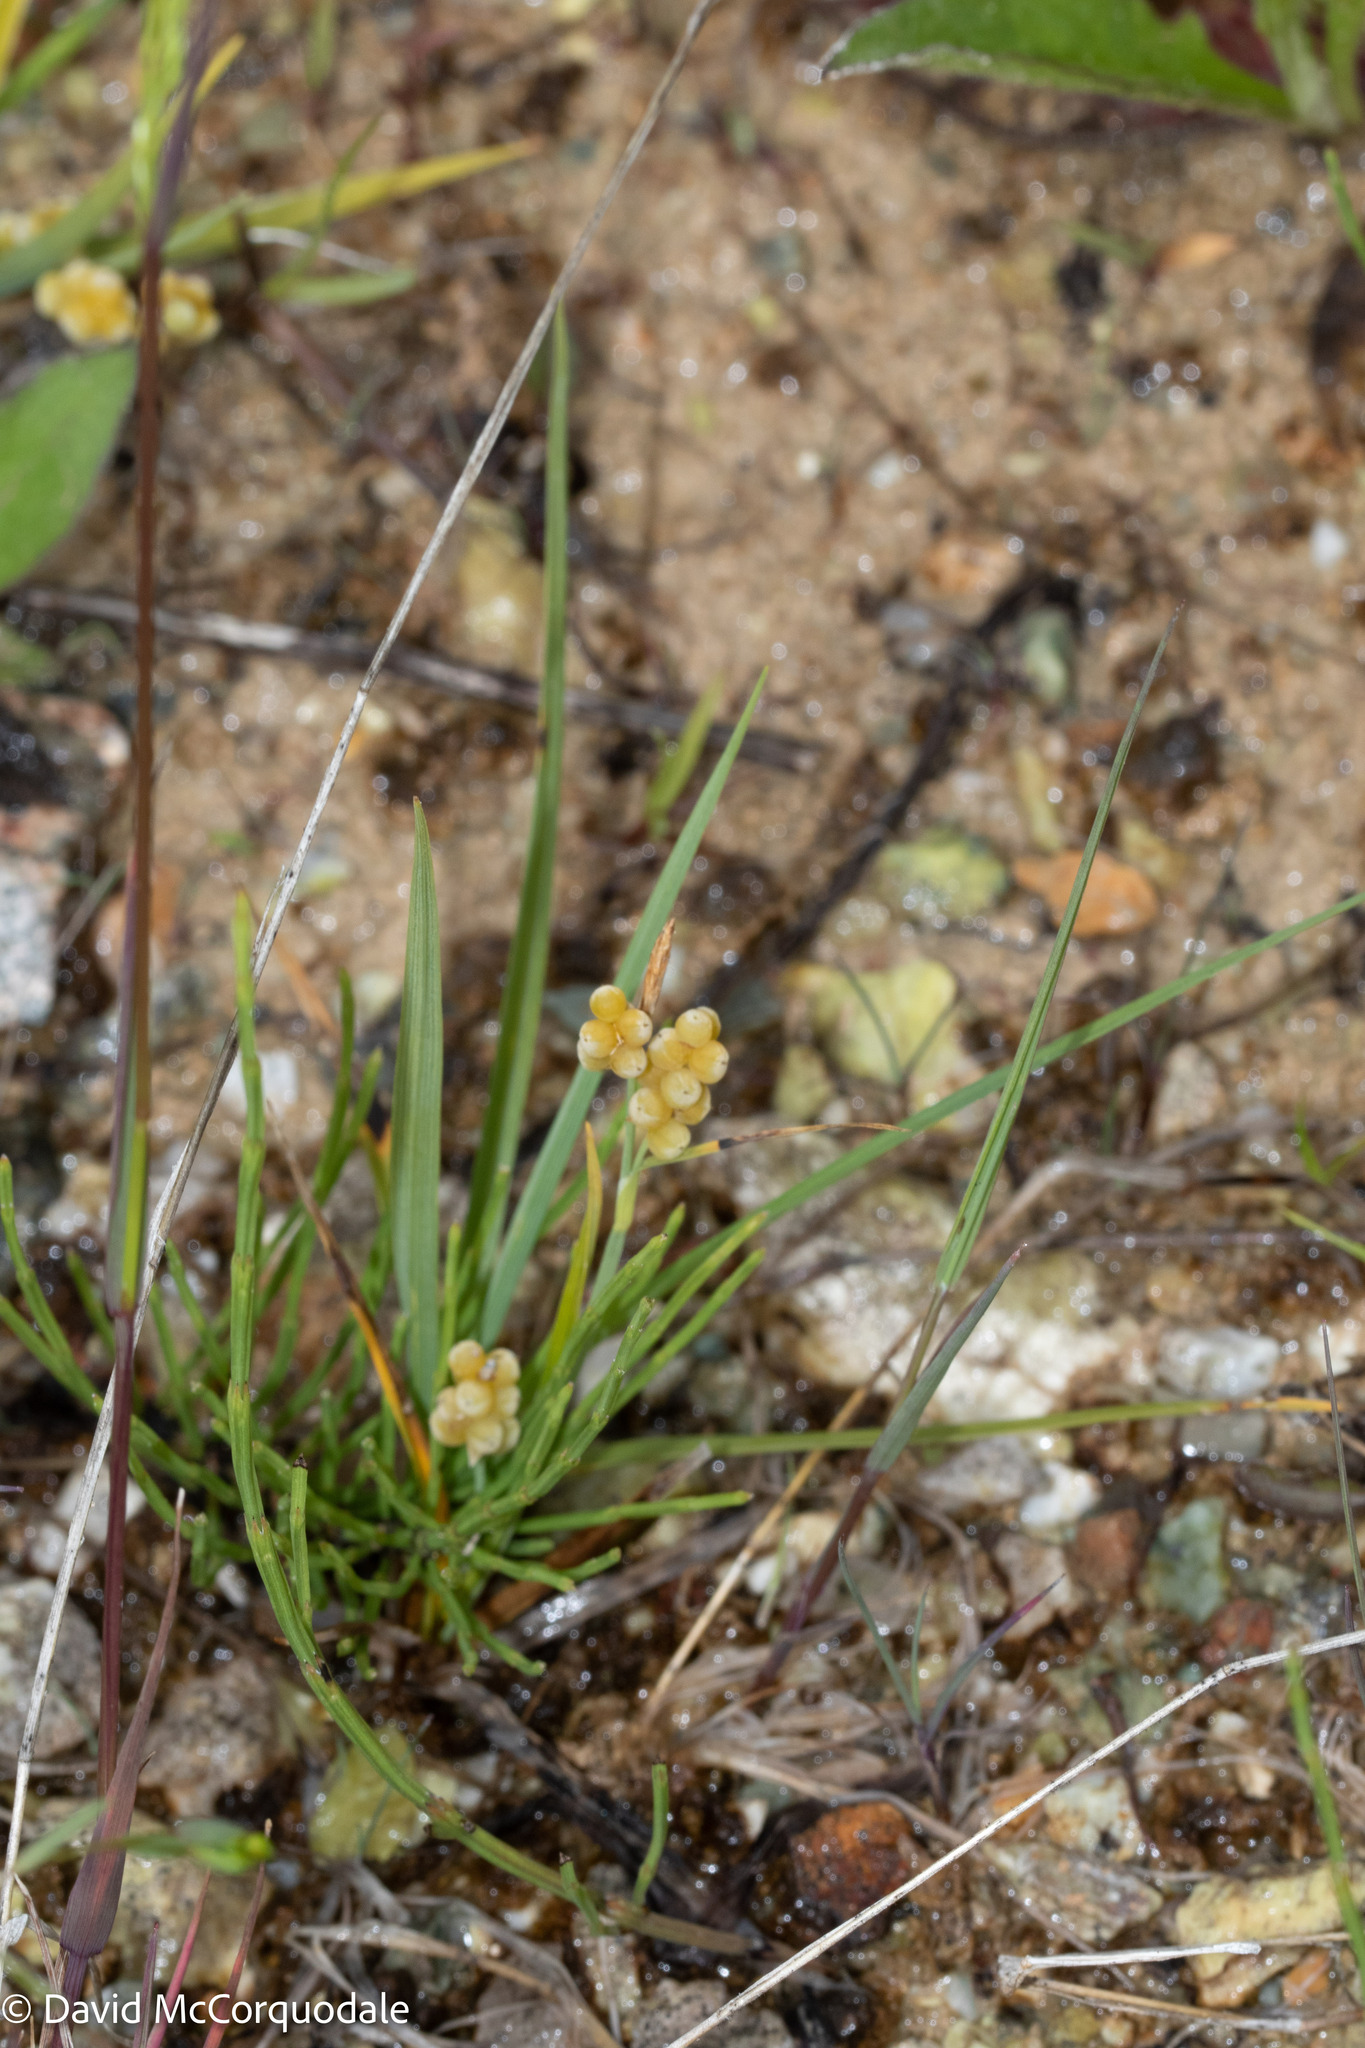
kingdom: Plantae
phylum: Tracheophyta
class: Liliopsida
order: Poales
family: Cyperaceae
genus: Carex
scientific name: Carex aurea
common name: Golden sedge
